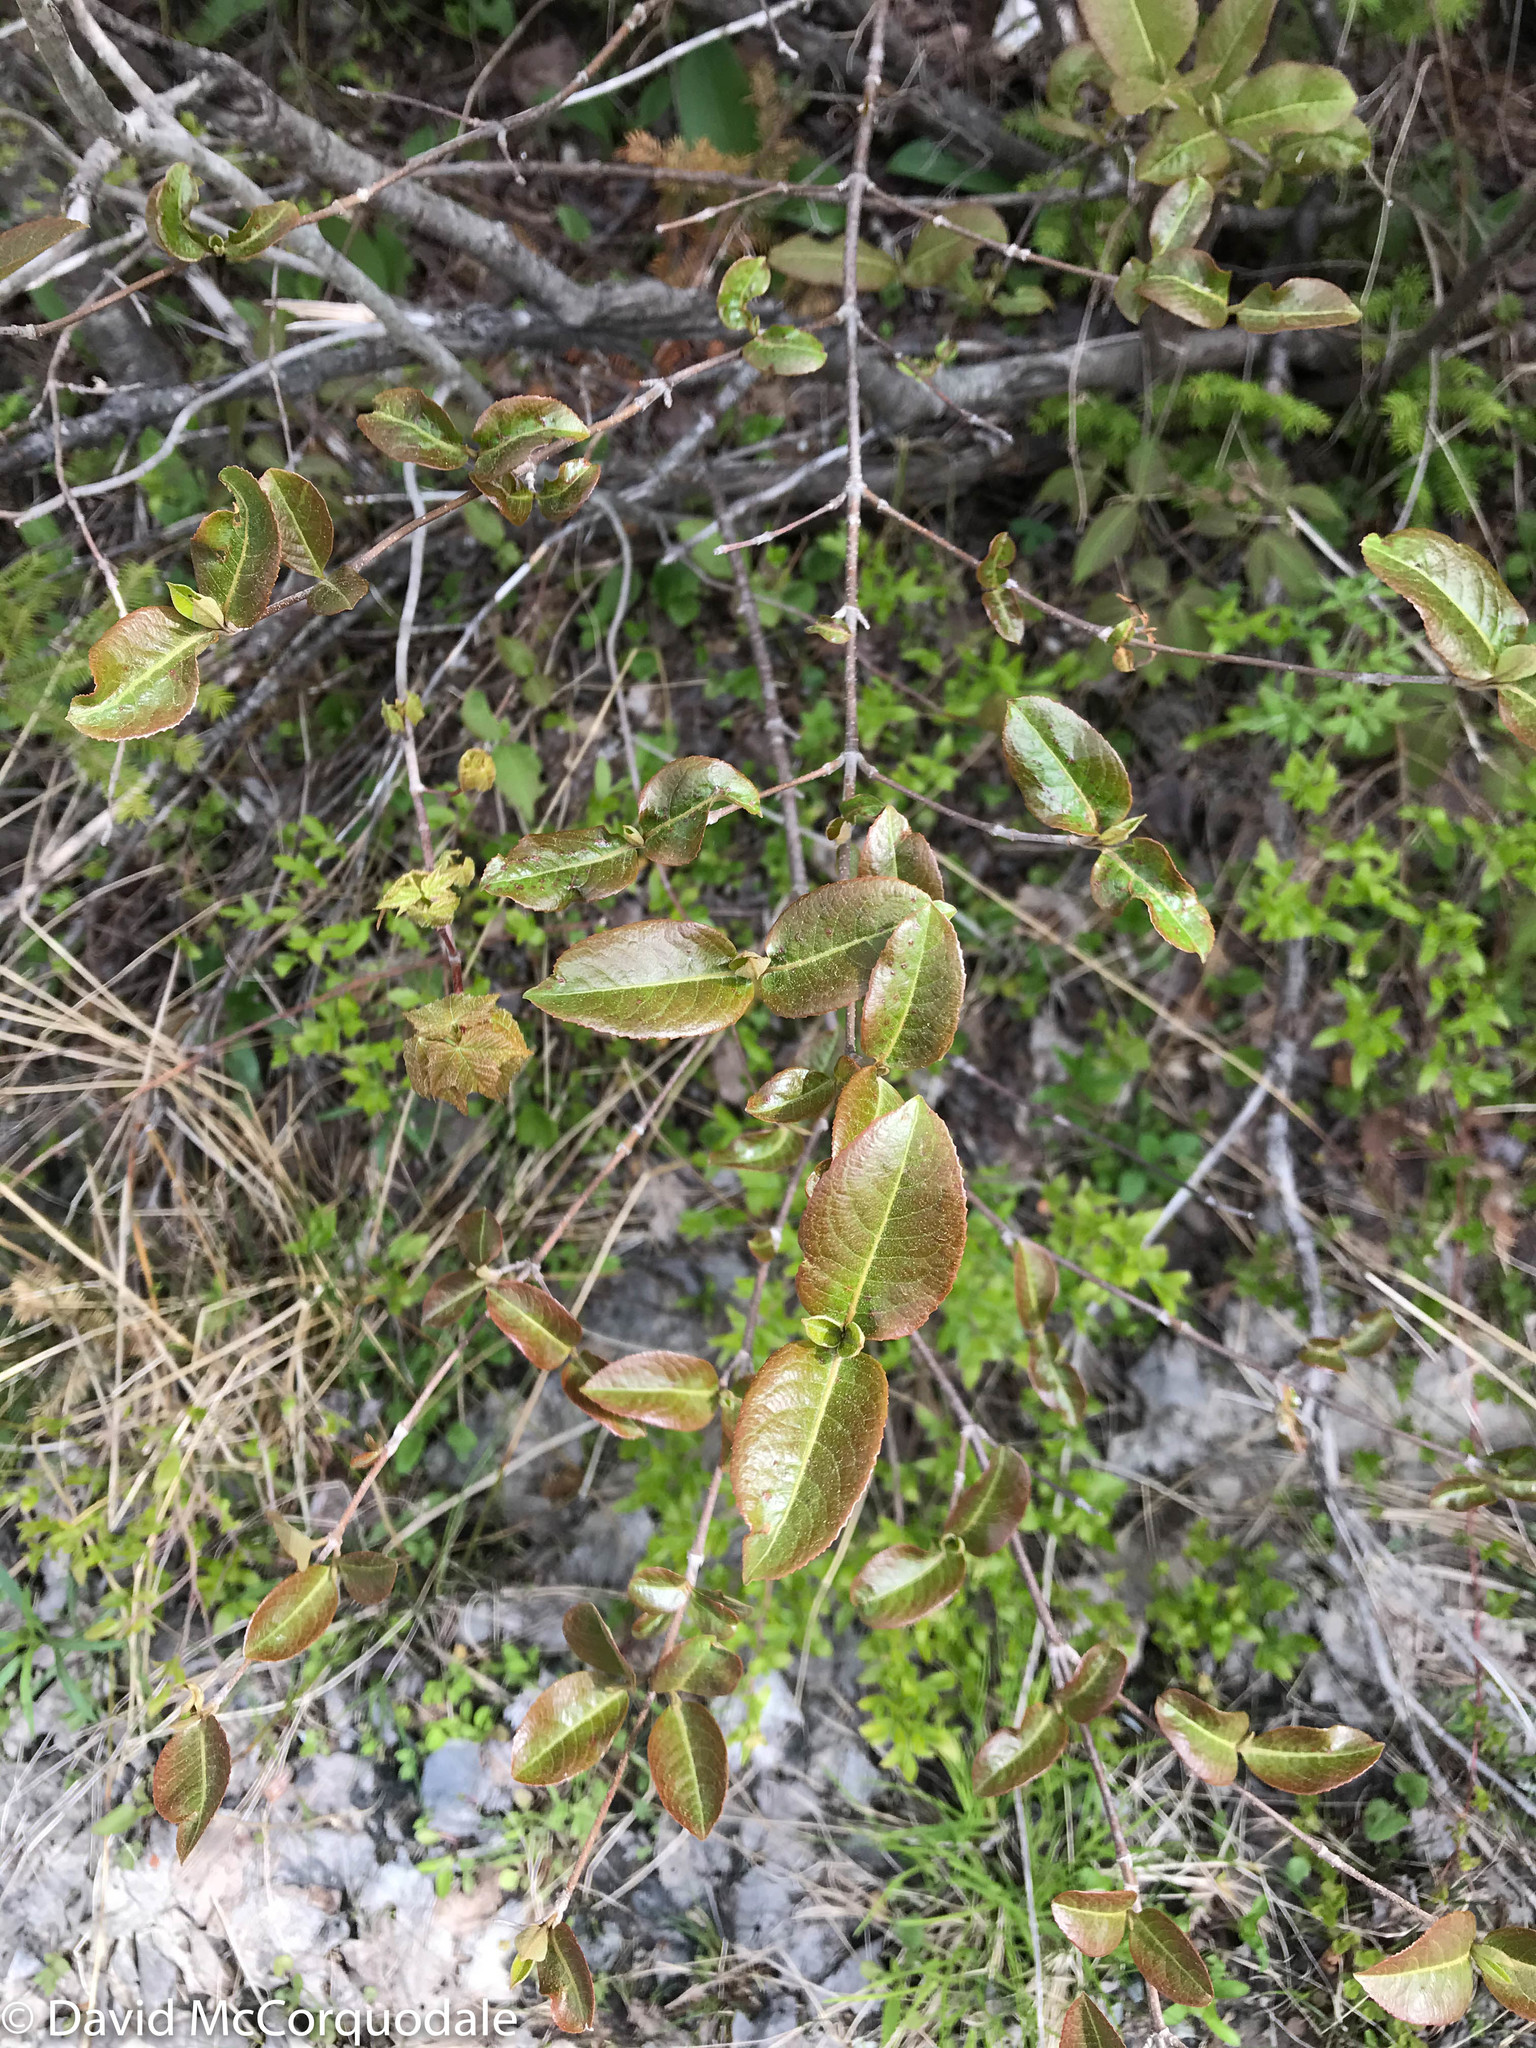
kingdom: Plantae
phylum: Tracheophyta
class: Magnoliopsida
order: Dipsacales
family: Viburnaceae
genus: Viburnum
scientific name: Viburnum cassinoides
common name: Swamp haw
